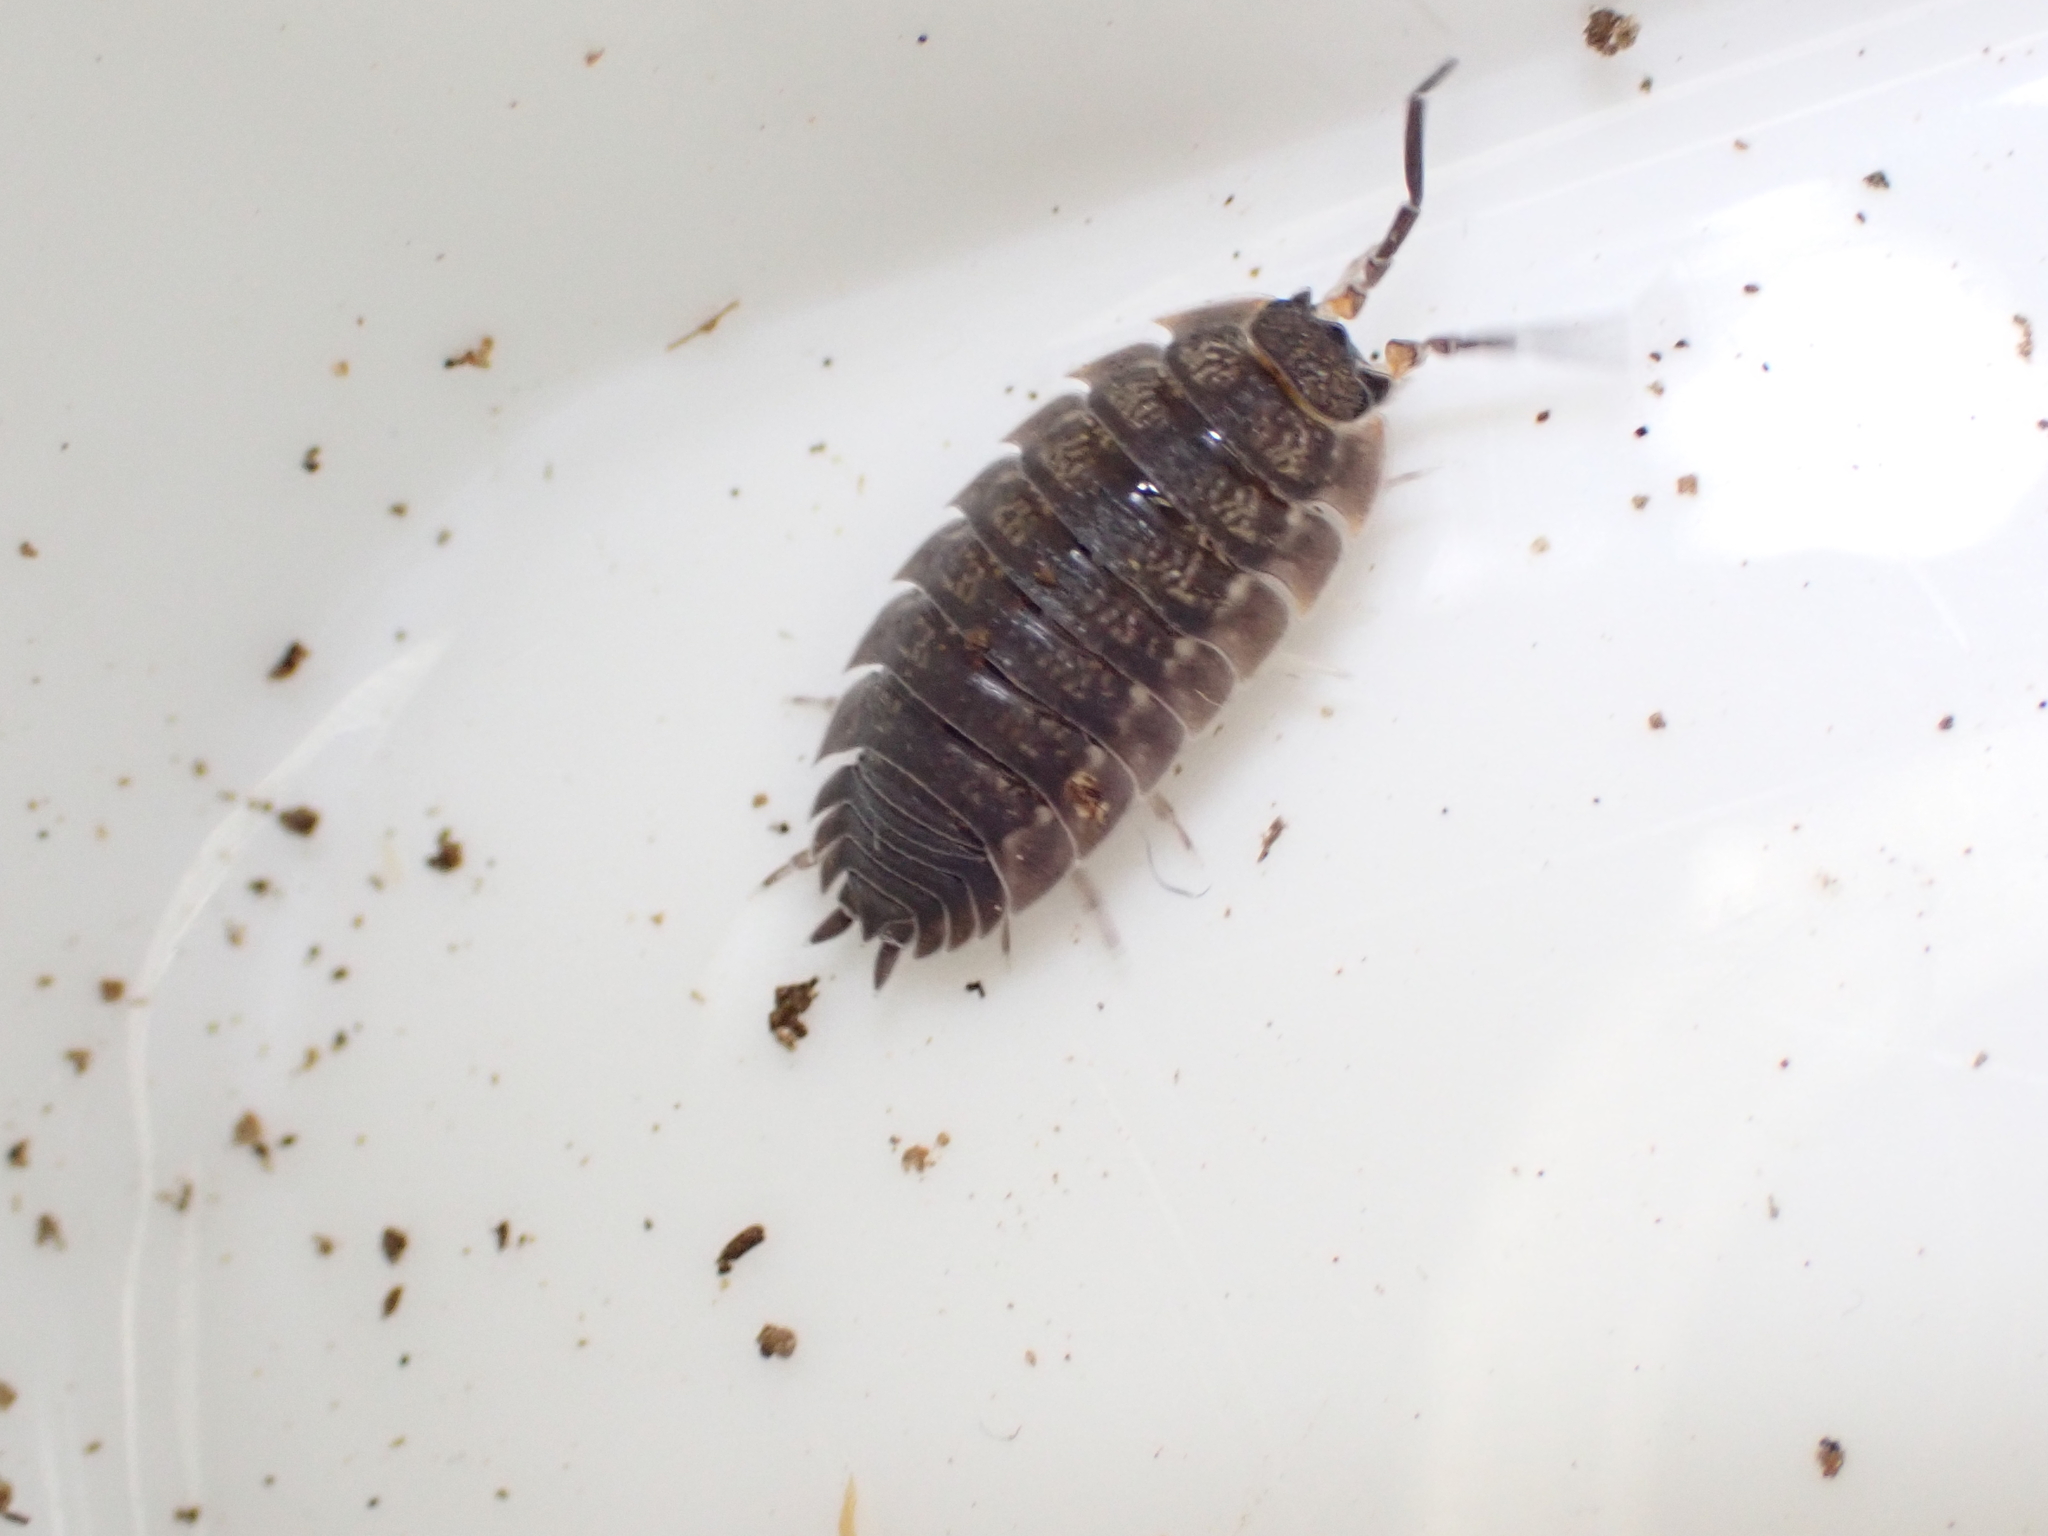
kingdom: Animalia
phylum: Arthropoda
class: Malacostraca
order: Isopoda
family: Porcellionidae
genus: Porcellio
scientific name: Porcellio scaber
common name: Common rough woodlouse
